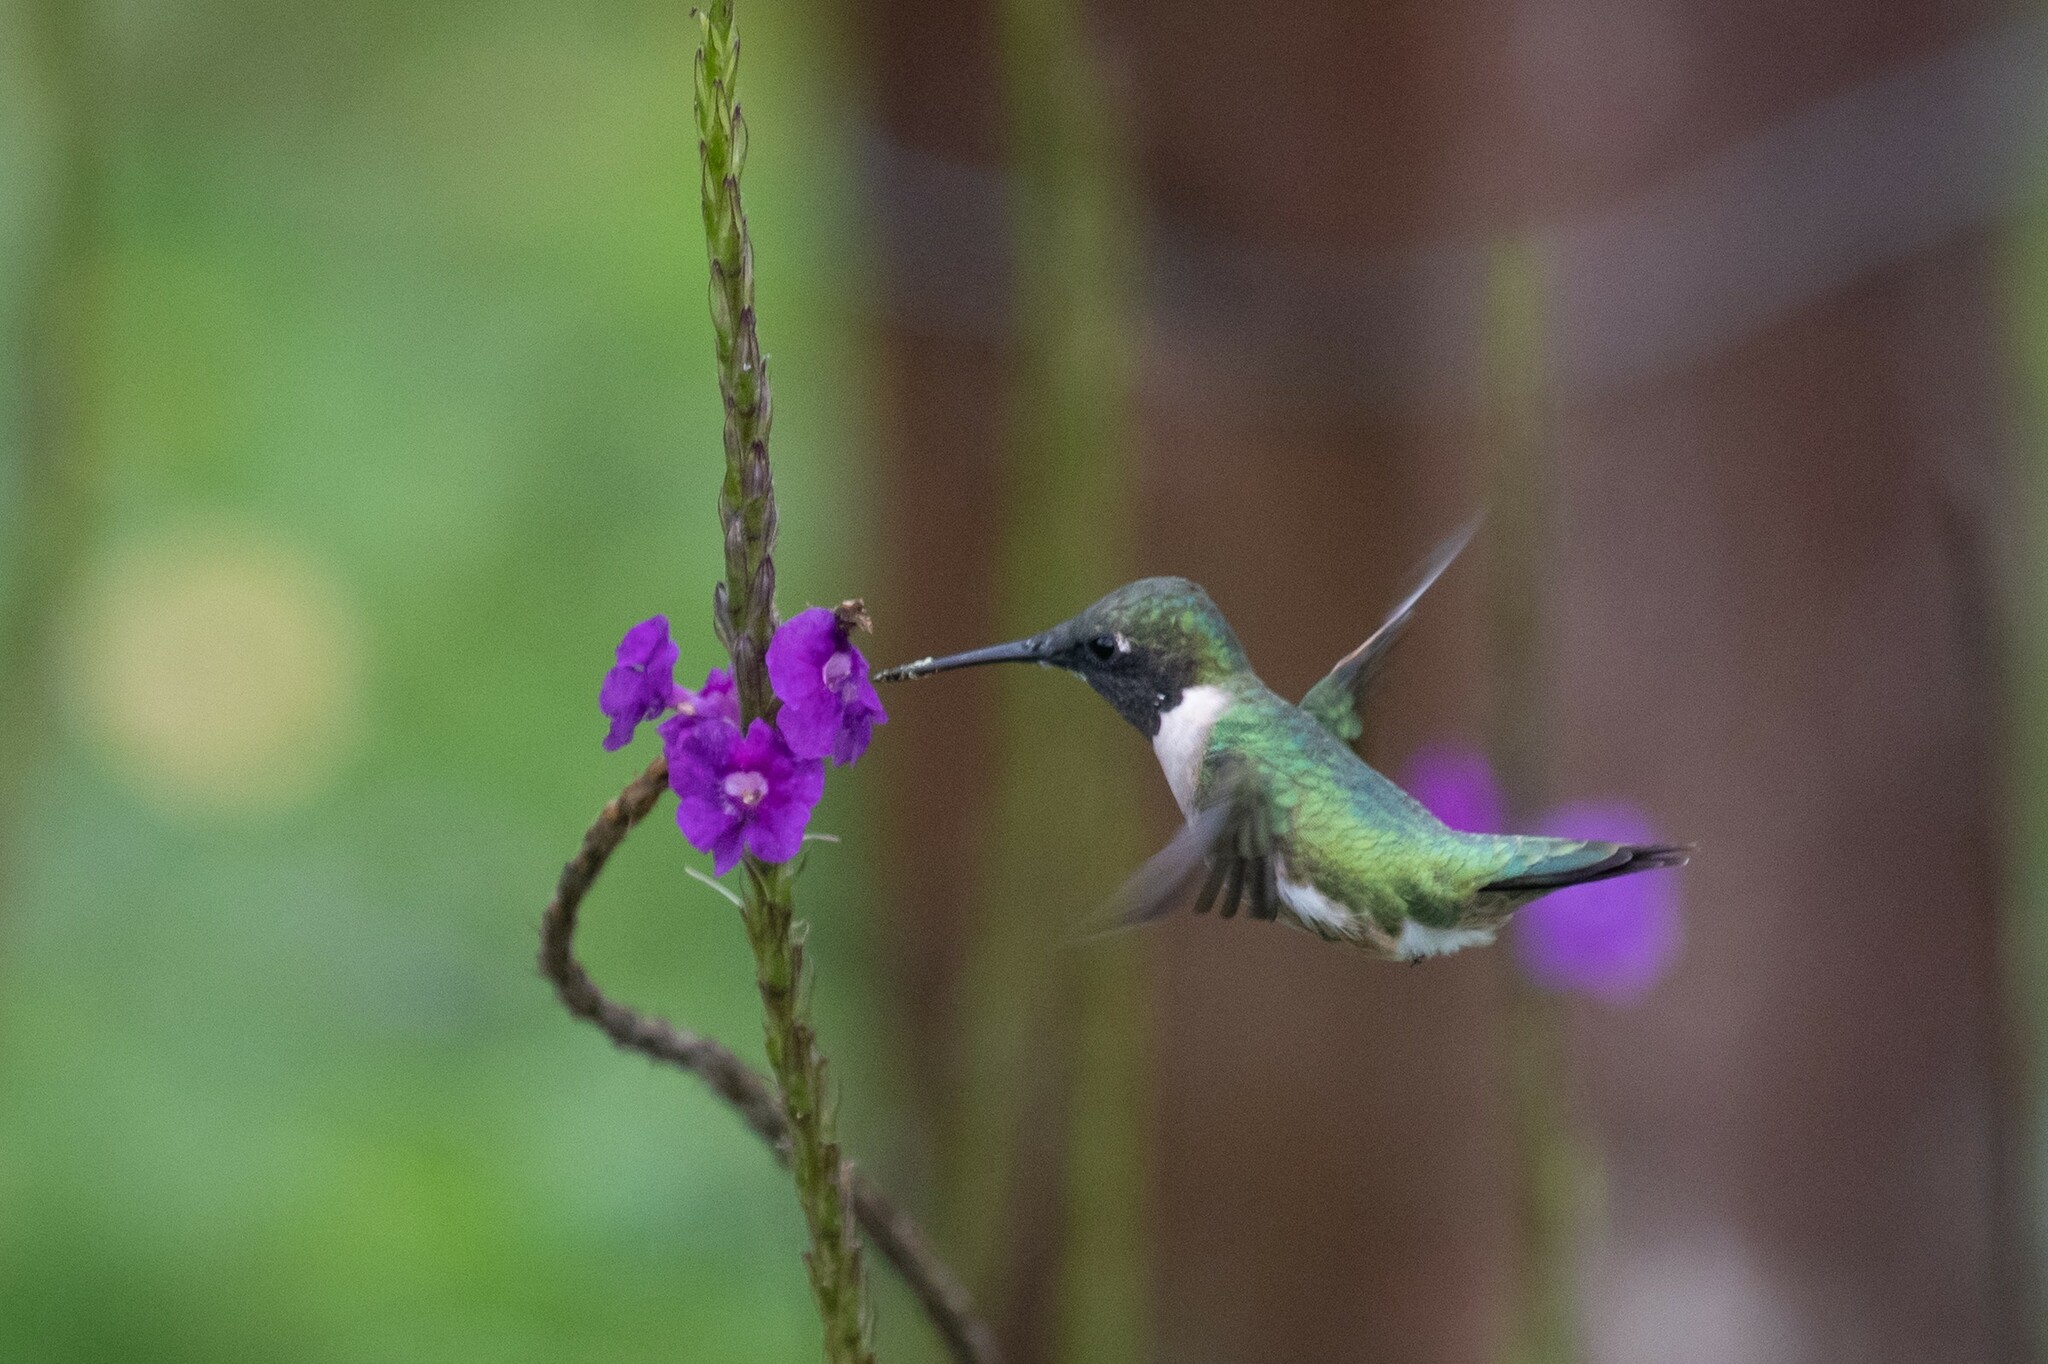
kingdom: Animalia
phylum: Chordata
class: Aves
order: Apodiformes
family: Trochilidae
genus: Archilochus
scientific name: Archilochus colubris
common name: Ruby-throated hummingbird
